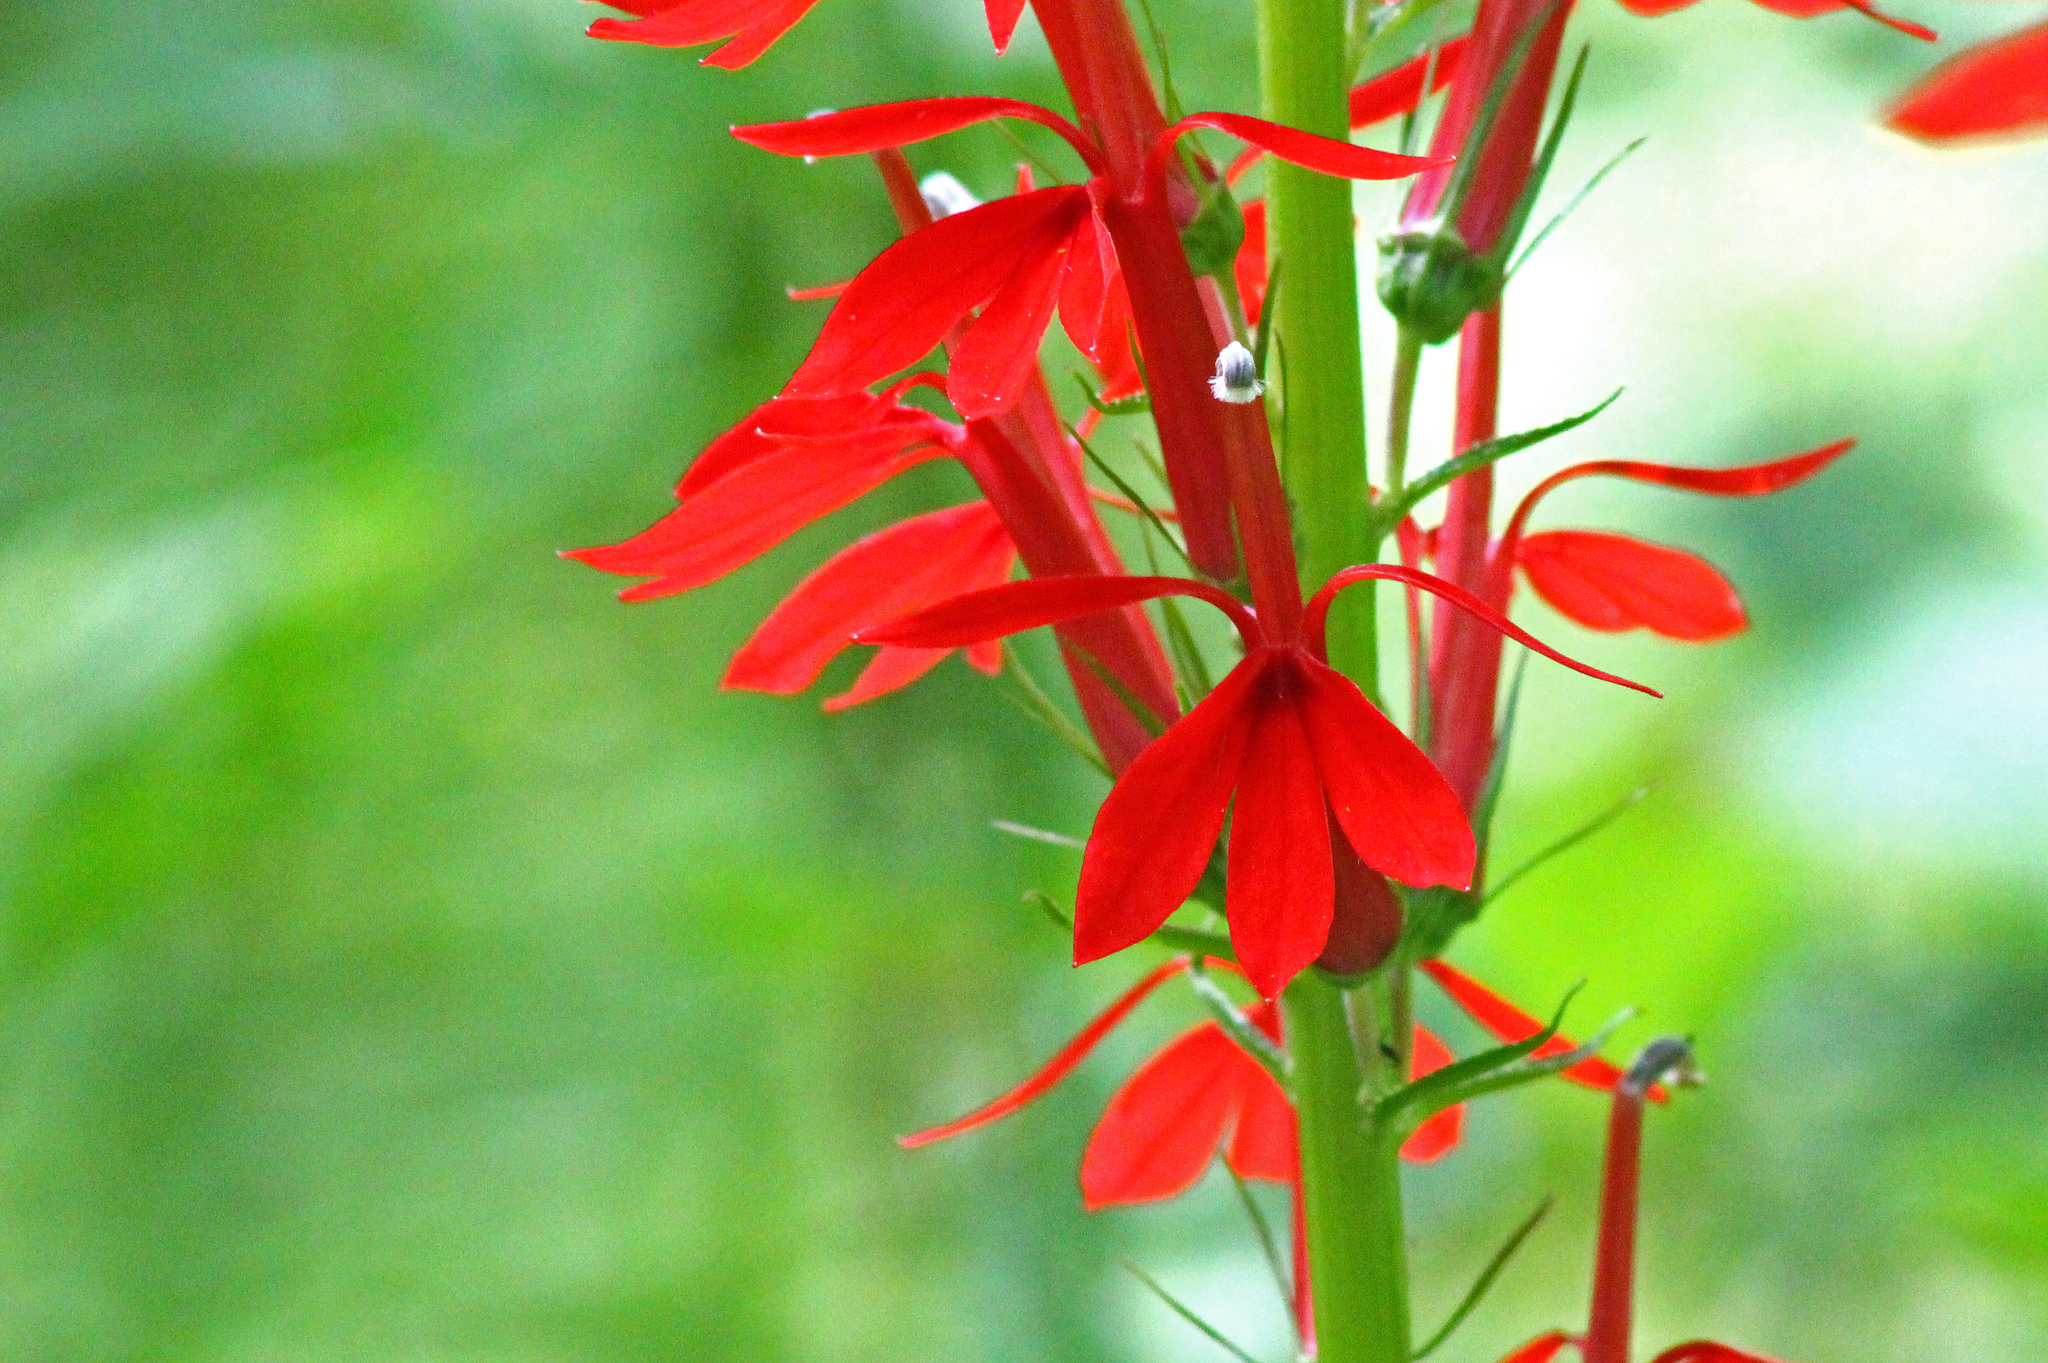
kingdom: Plantae
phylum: Tracheophyta
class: Magnoliopsida
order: Asterales
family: Campanulaceae
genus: Lobelia
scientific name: Lobelia cardinalis
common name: Cardinal flower
